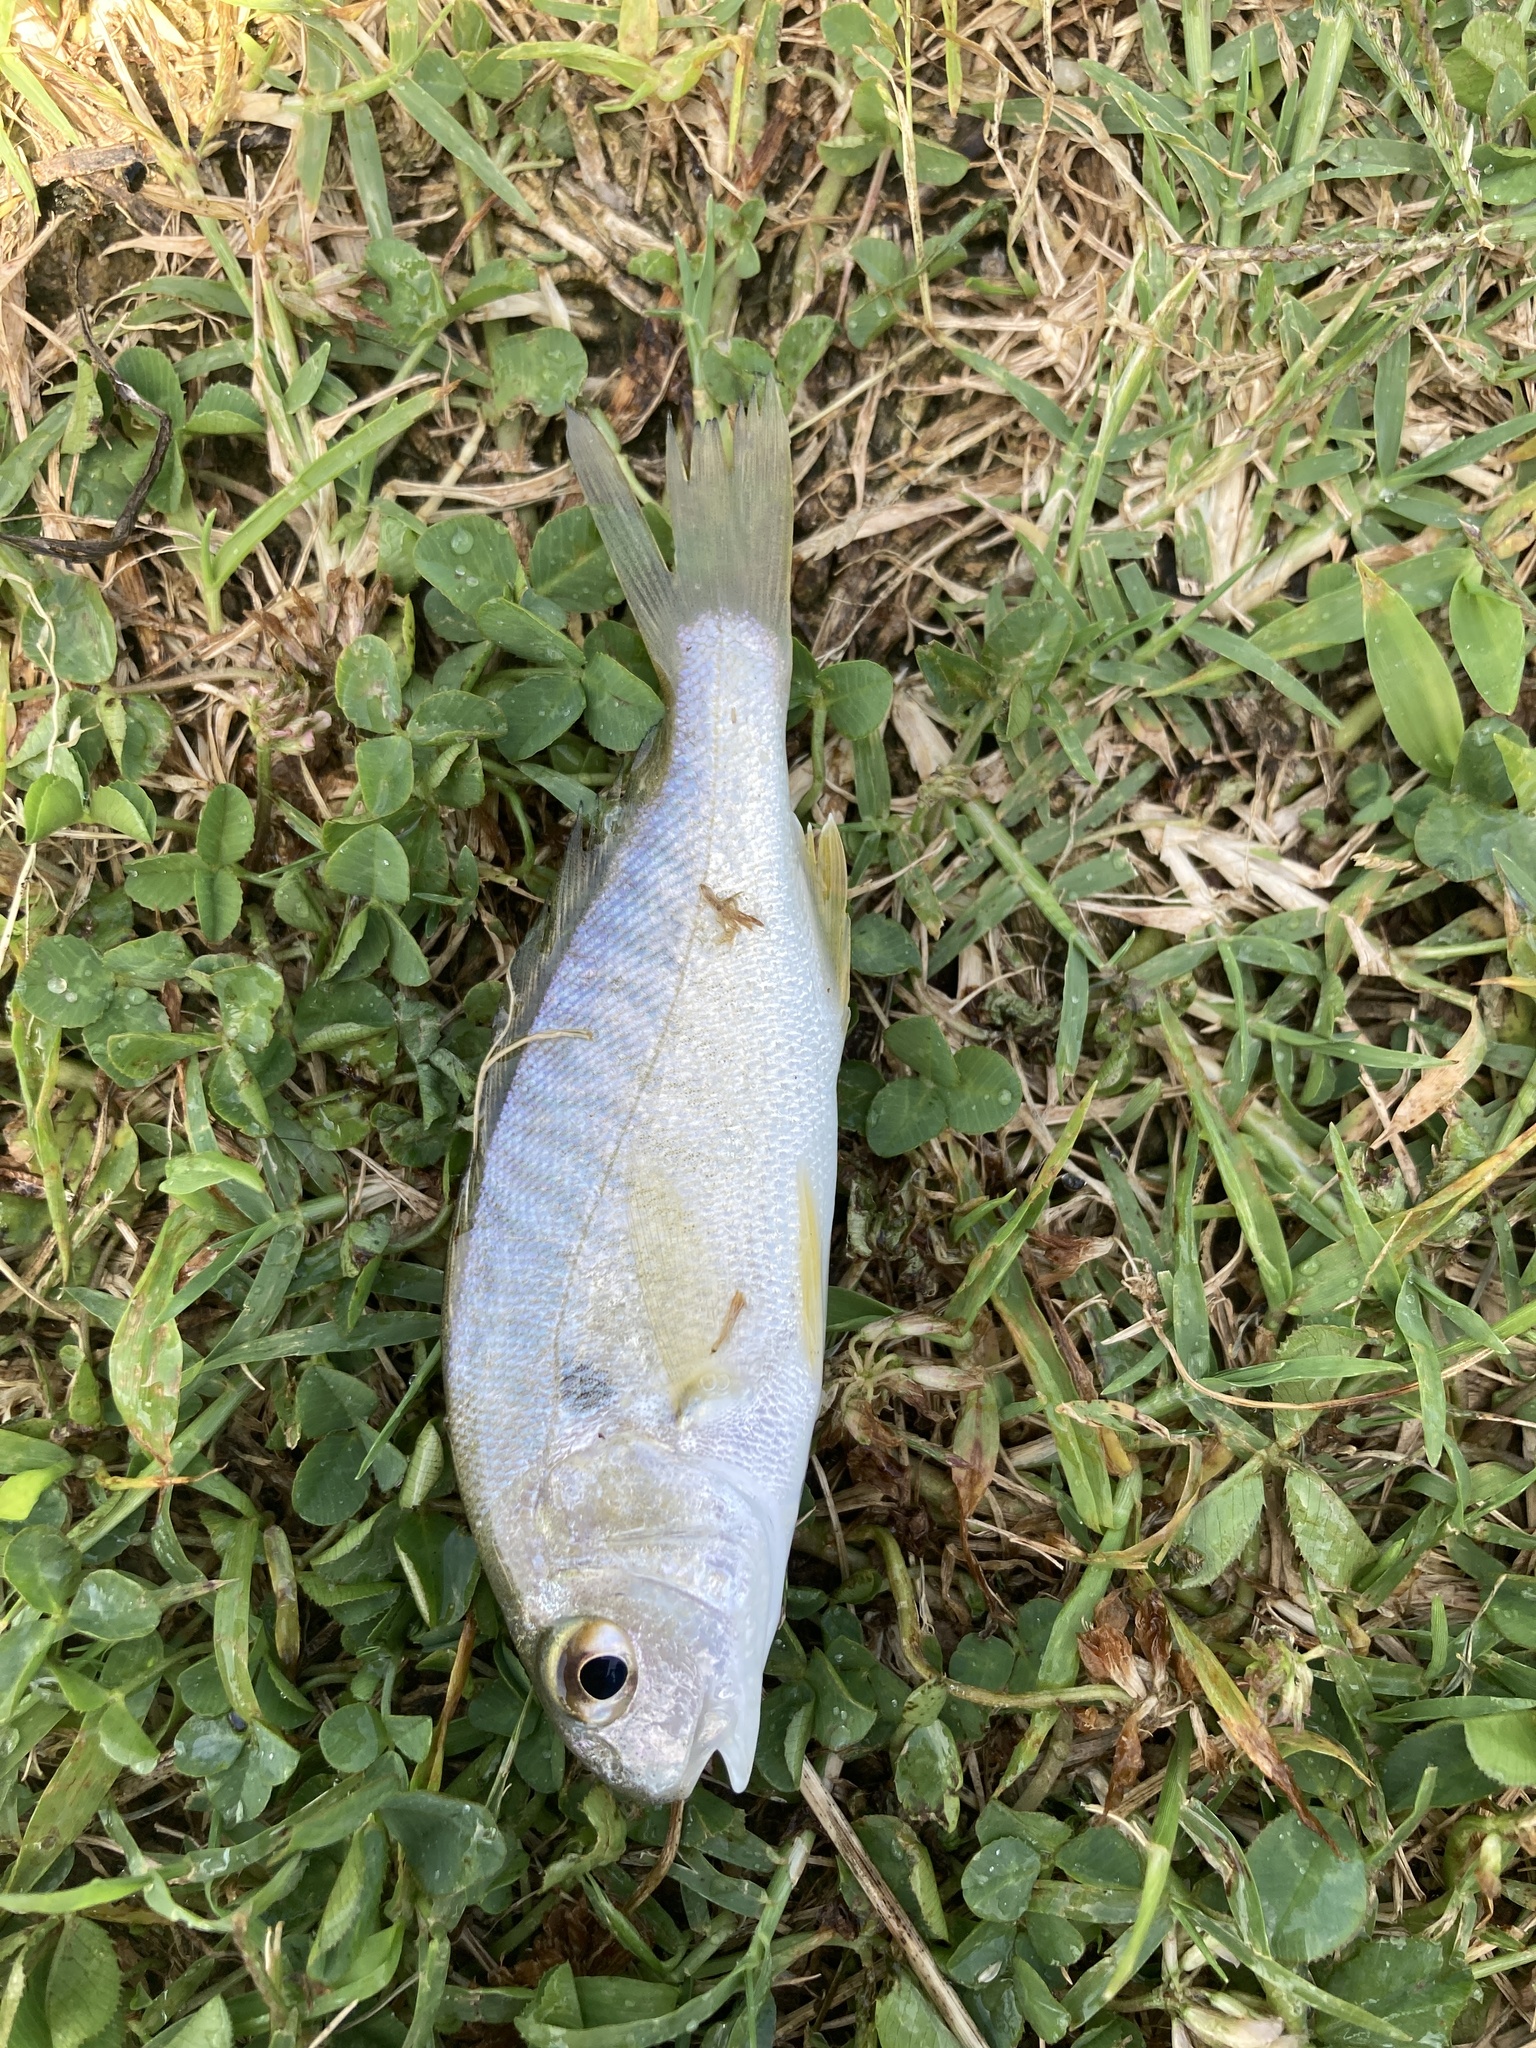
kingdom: Animalia
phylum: Chordata
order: Perciformes
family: Sciaenidae
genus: Leiostomus
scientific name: Leiostomus xanthurus
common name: Spot
